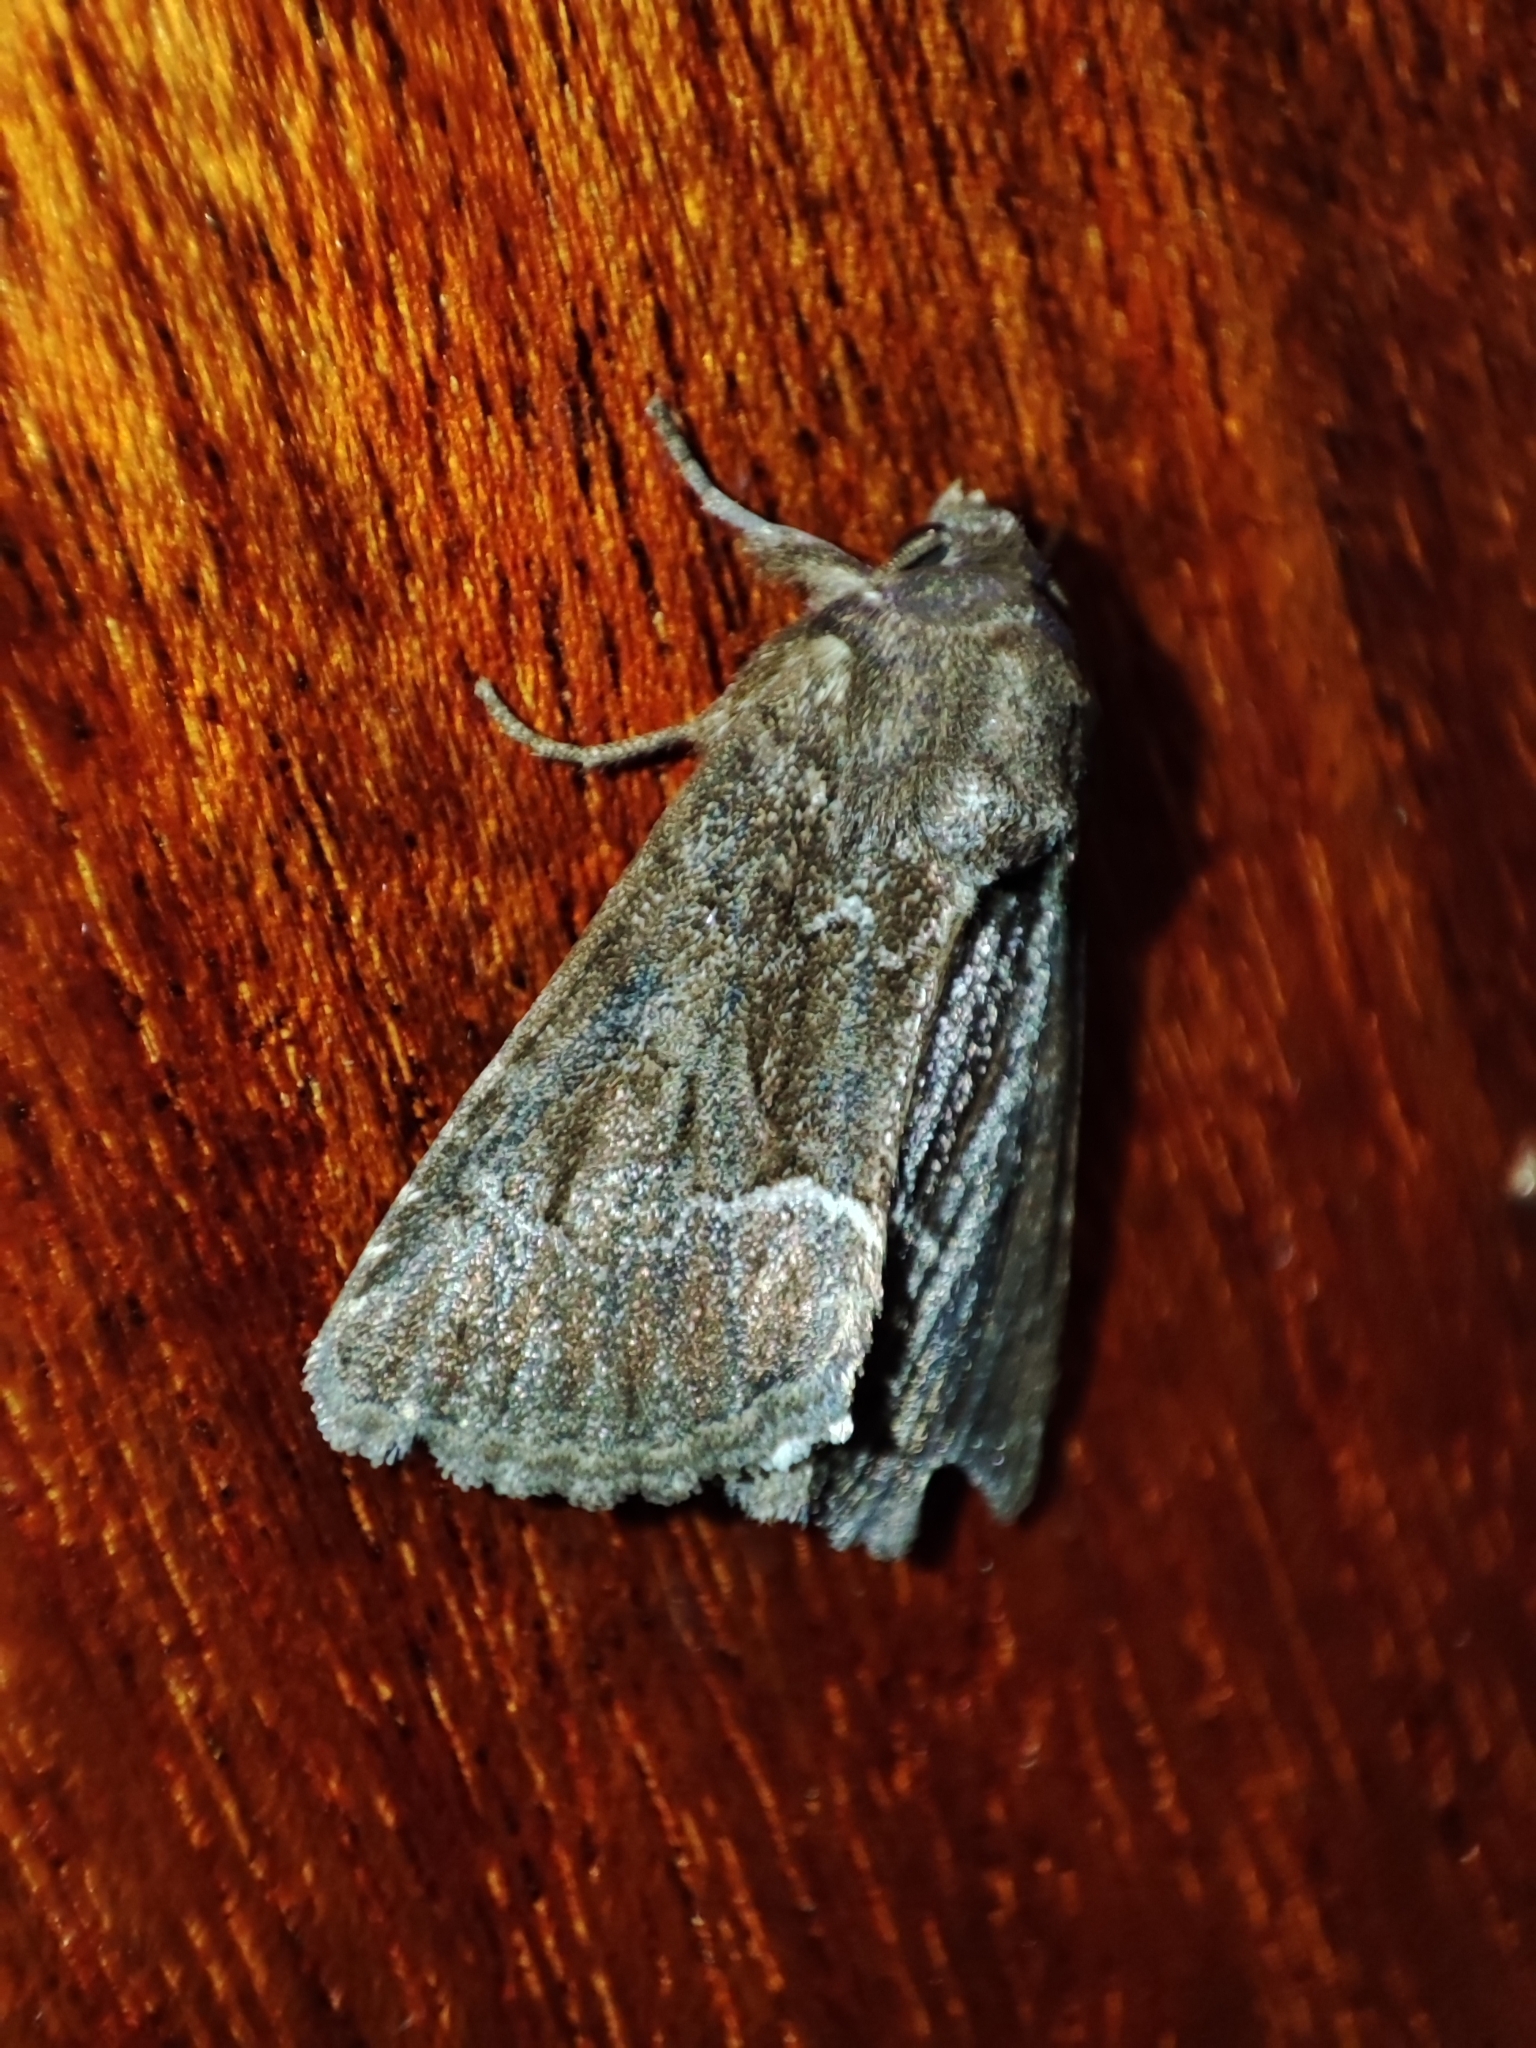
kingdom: Animalia
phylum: Arthropoda
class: Insecta
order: Lepidoptera
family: Noctuidae
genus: Thalpophila
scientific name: Thalpophila matura
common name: Straw underwing
